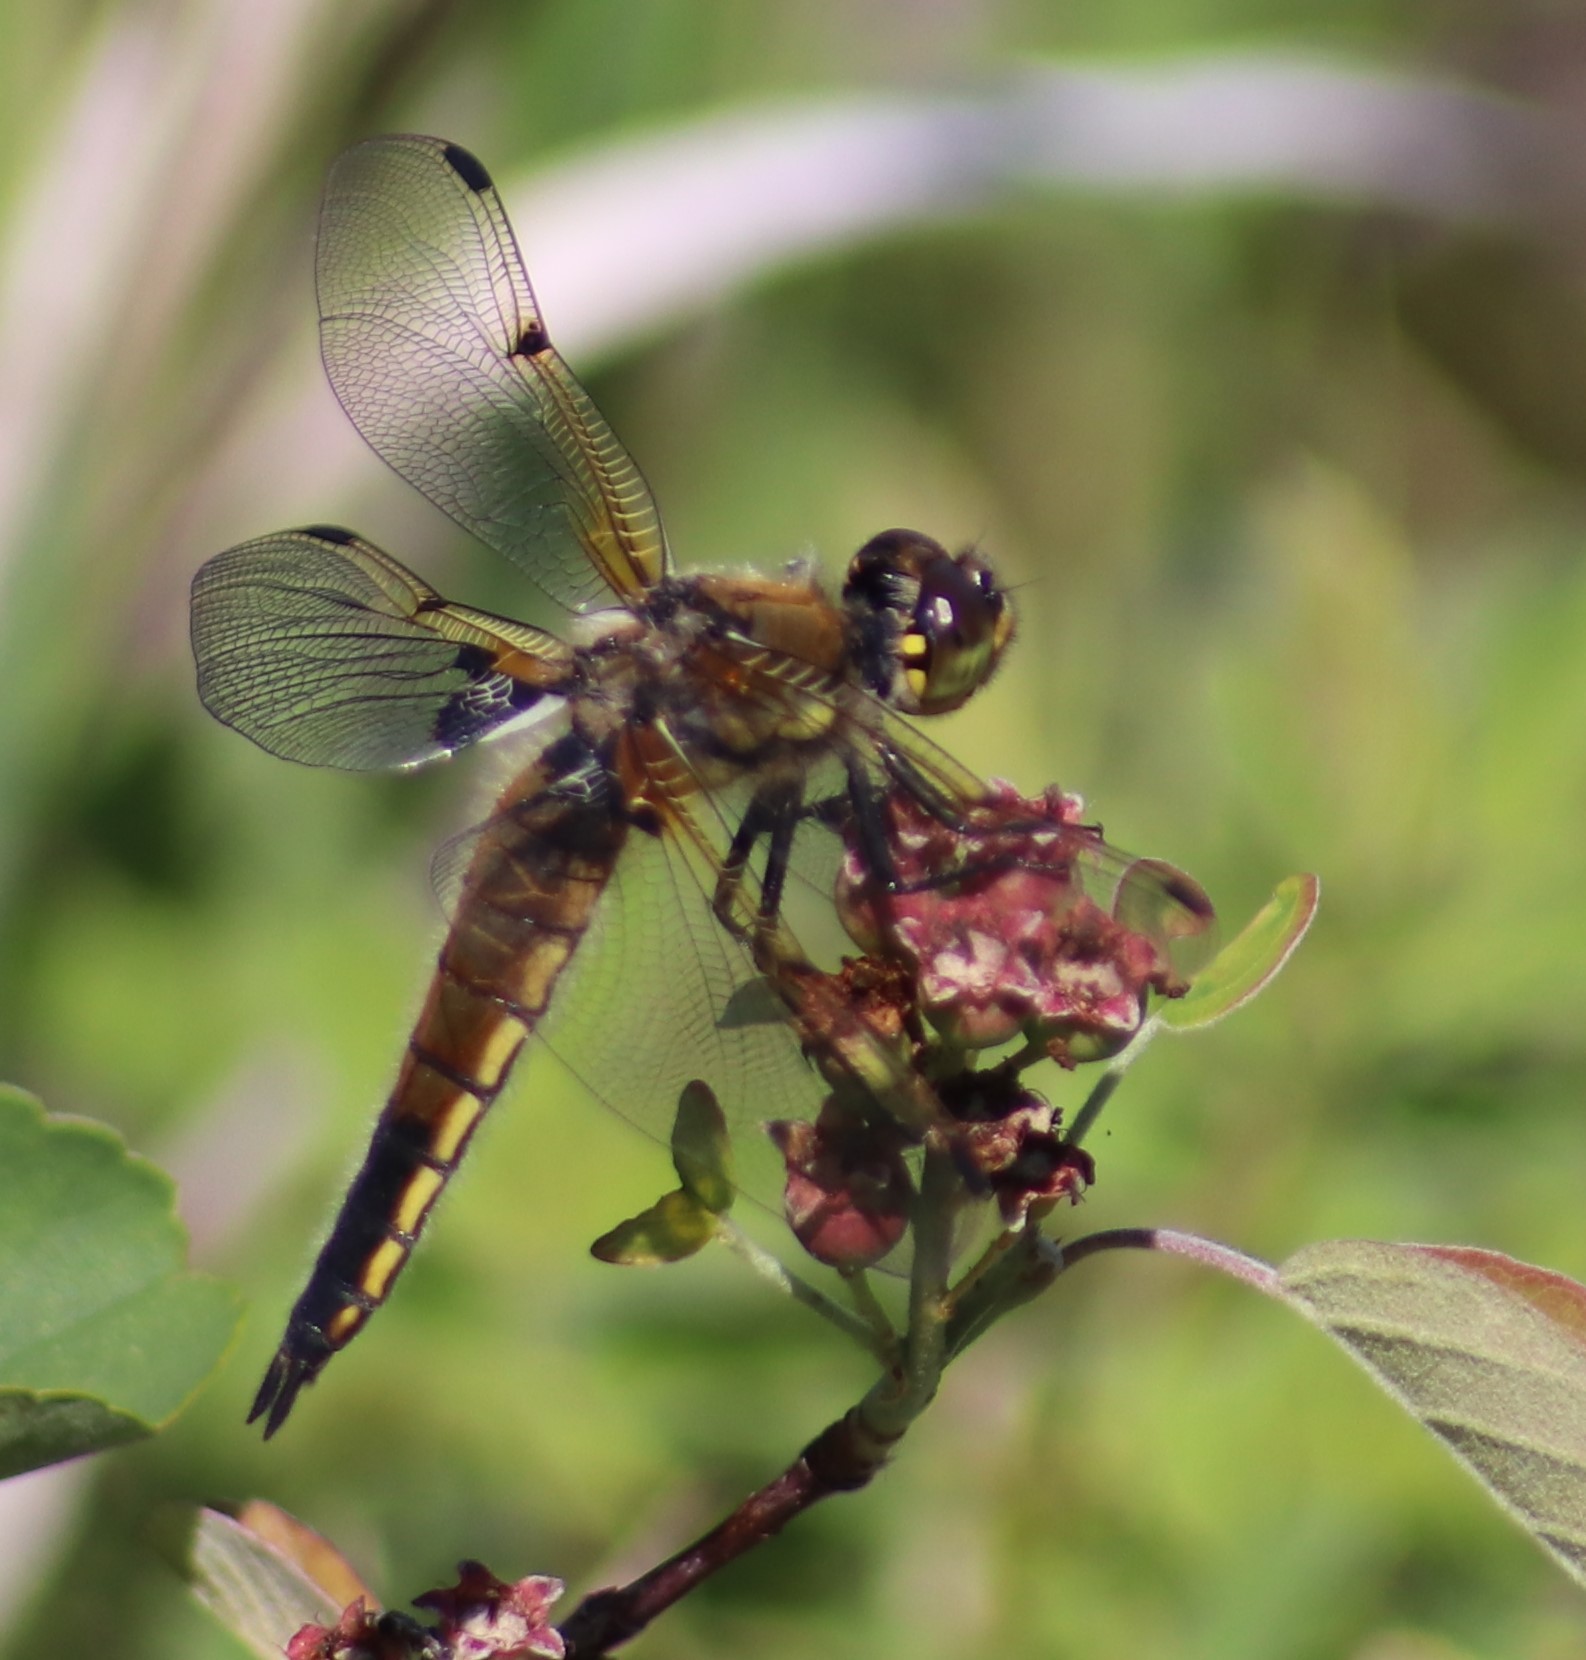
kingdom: Animalia
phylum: Arthropoda
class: Insecta
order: Odonata
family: Libellulidae
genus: Libellula
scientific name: Libellula quadrimaculata
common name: Four-spotted chaser
